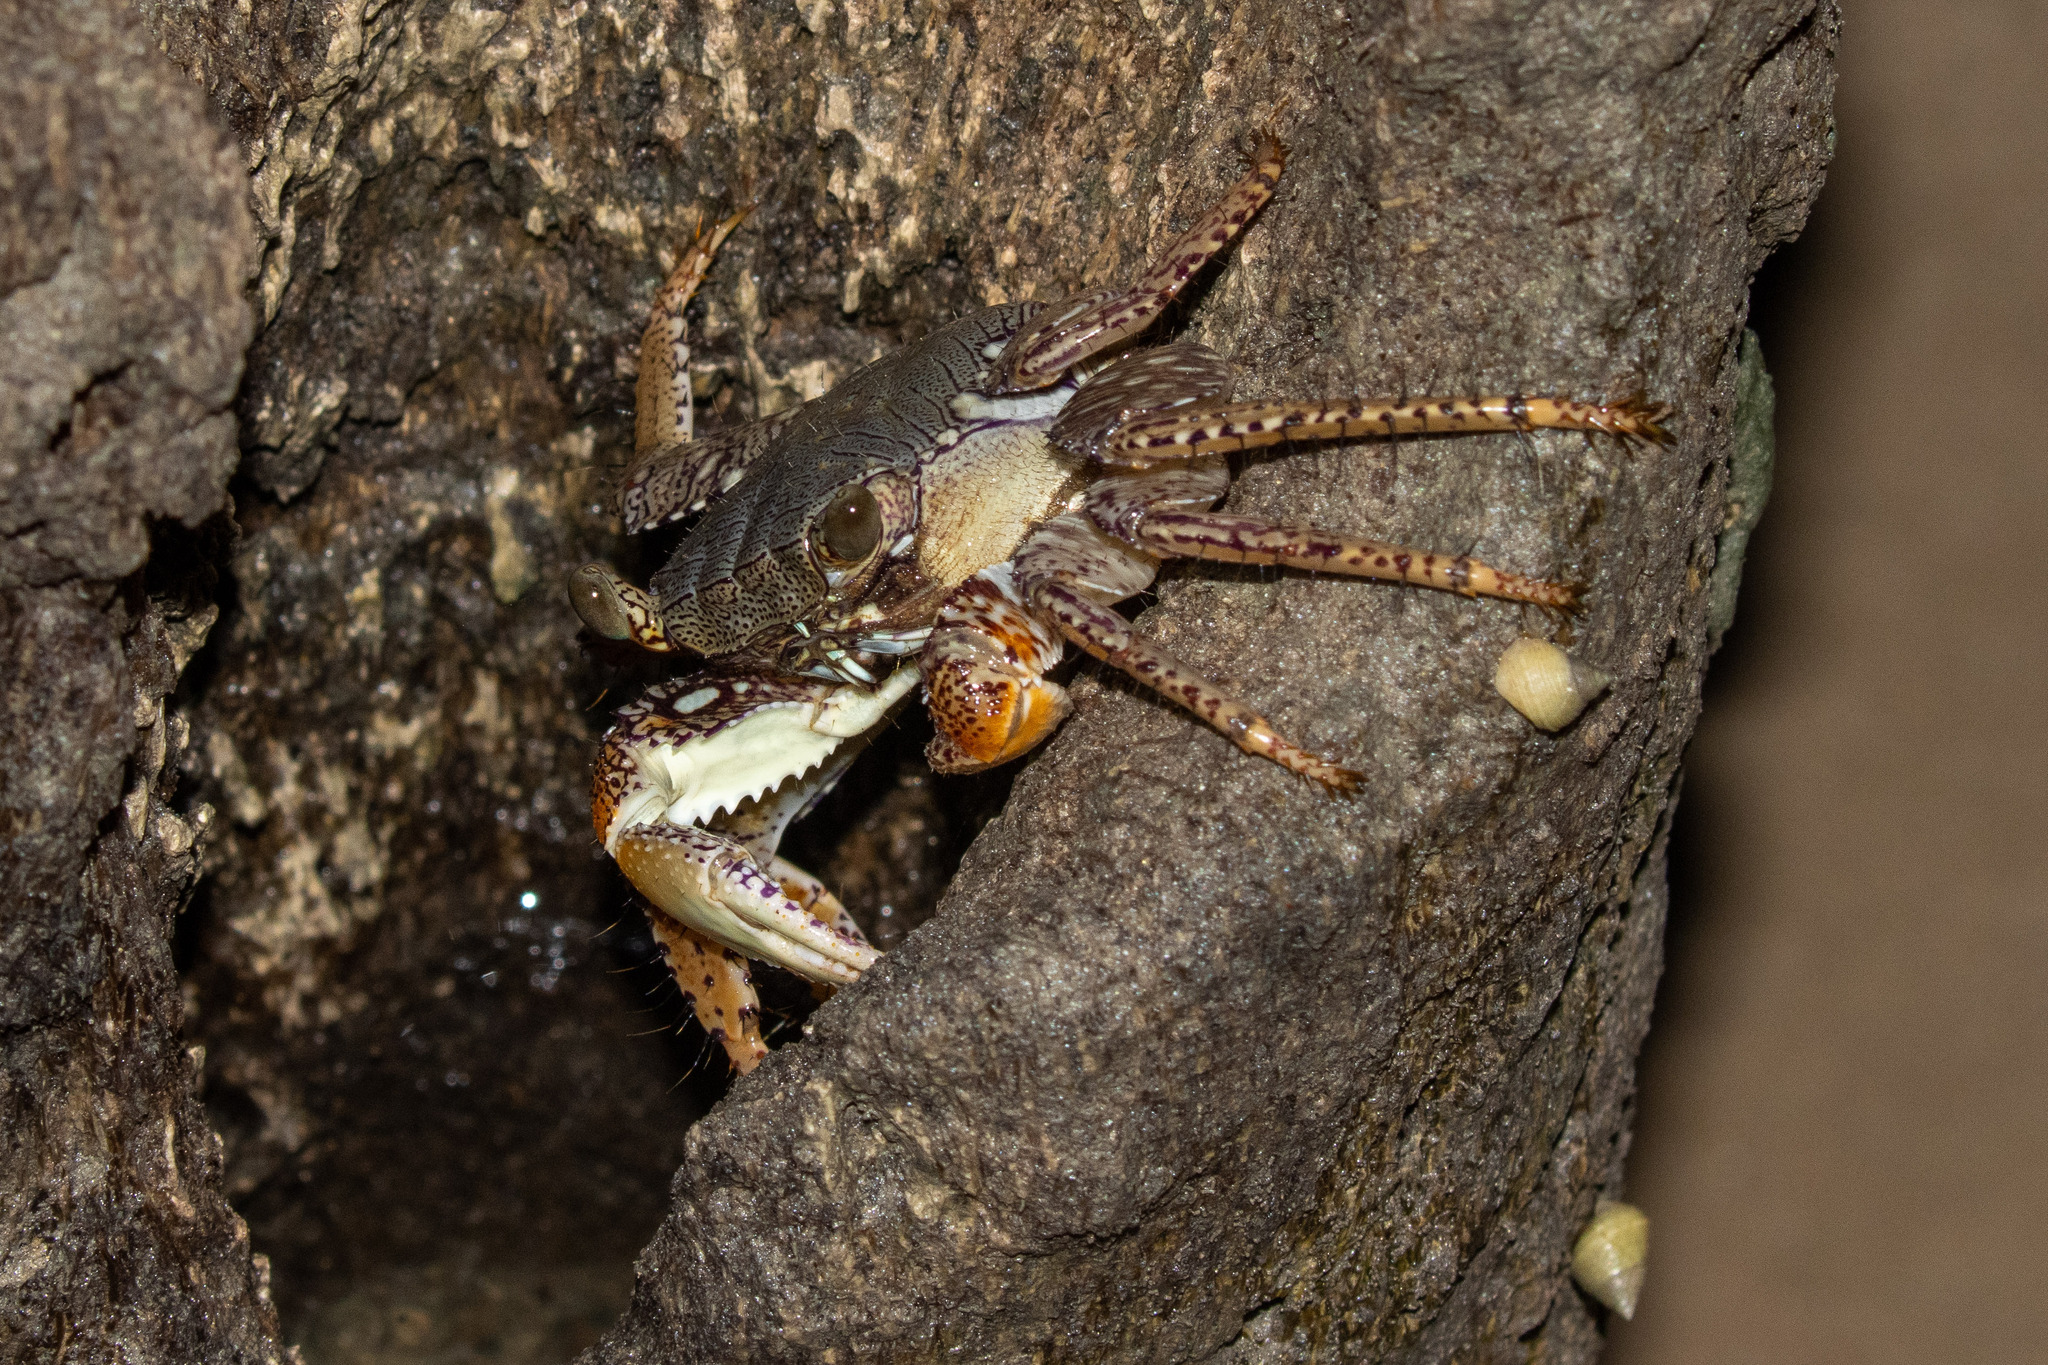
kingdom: Animalia
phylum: Arthropoda
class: Malacostraca
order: Decapoda
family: Grapsidae
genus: Goniopsis
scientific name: Goniopsis cruentata
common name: Mangrove crab
